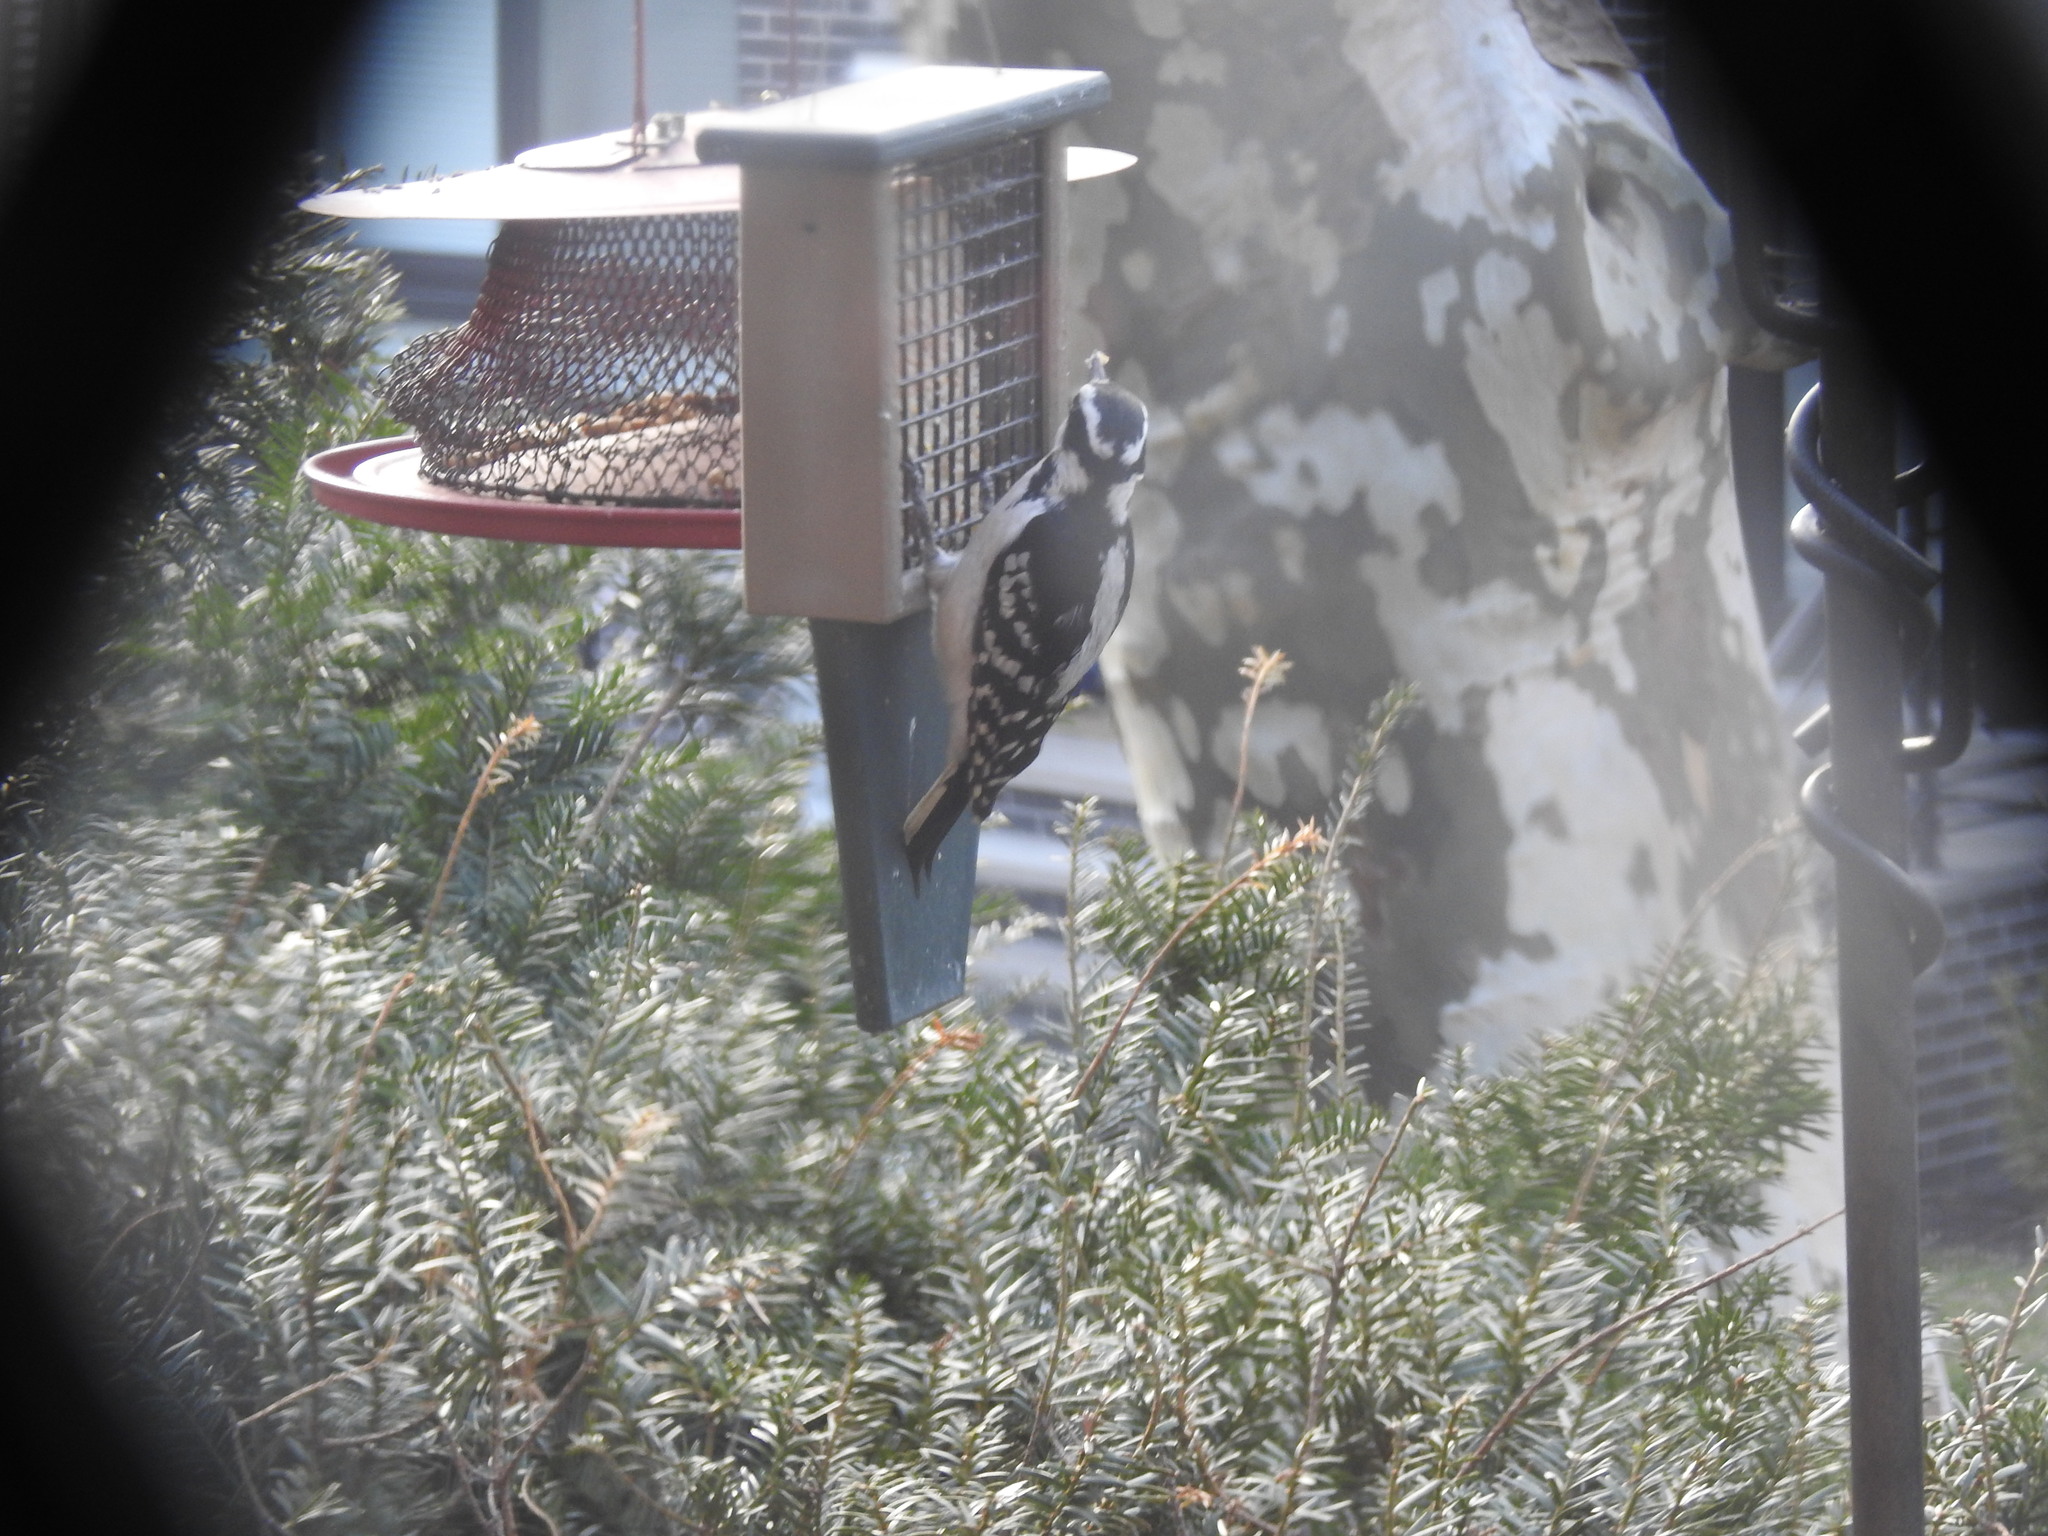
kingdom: Animalia
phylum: Chordata
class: Aves
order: Piciformes
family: Picidae
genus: Leuconotopicus
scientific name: Leuconotopicus villosus
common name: Hairy woodpecker
